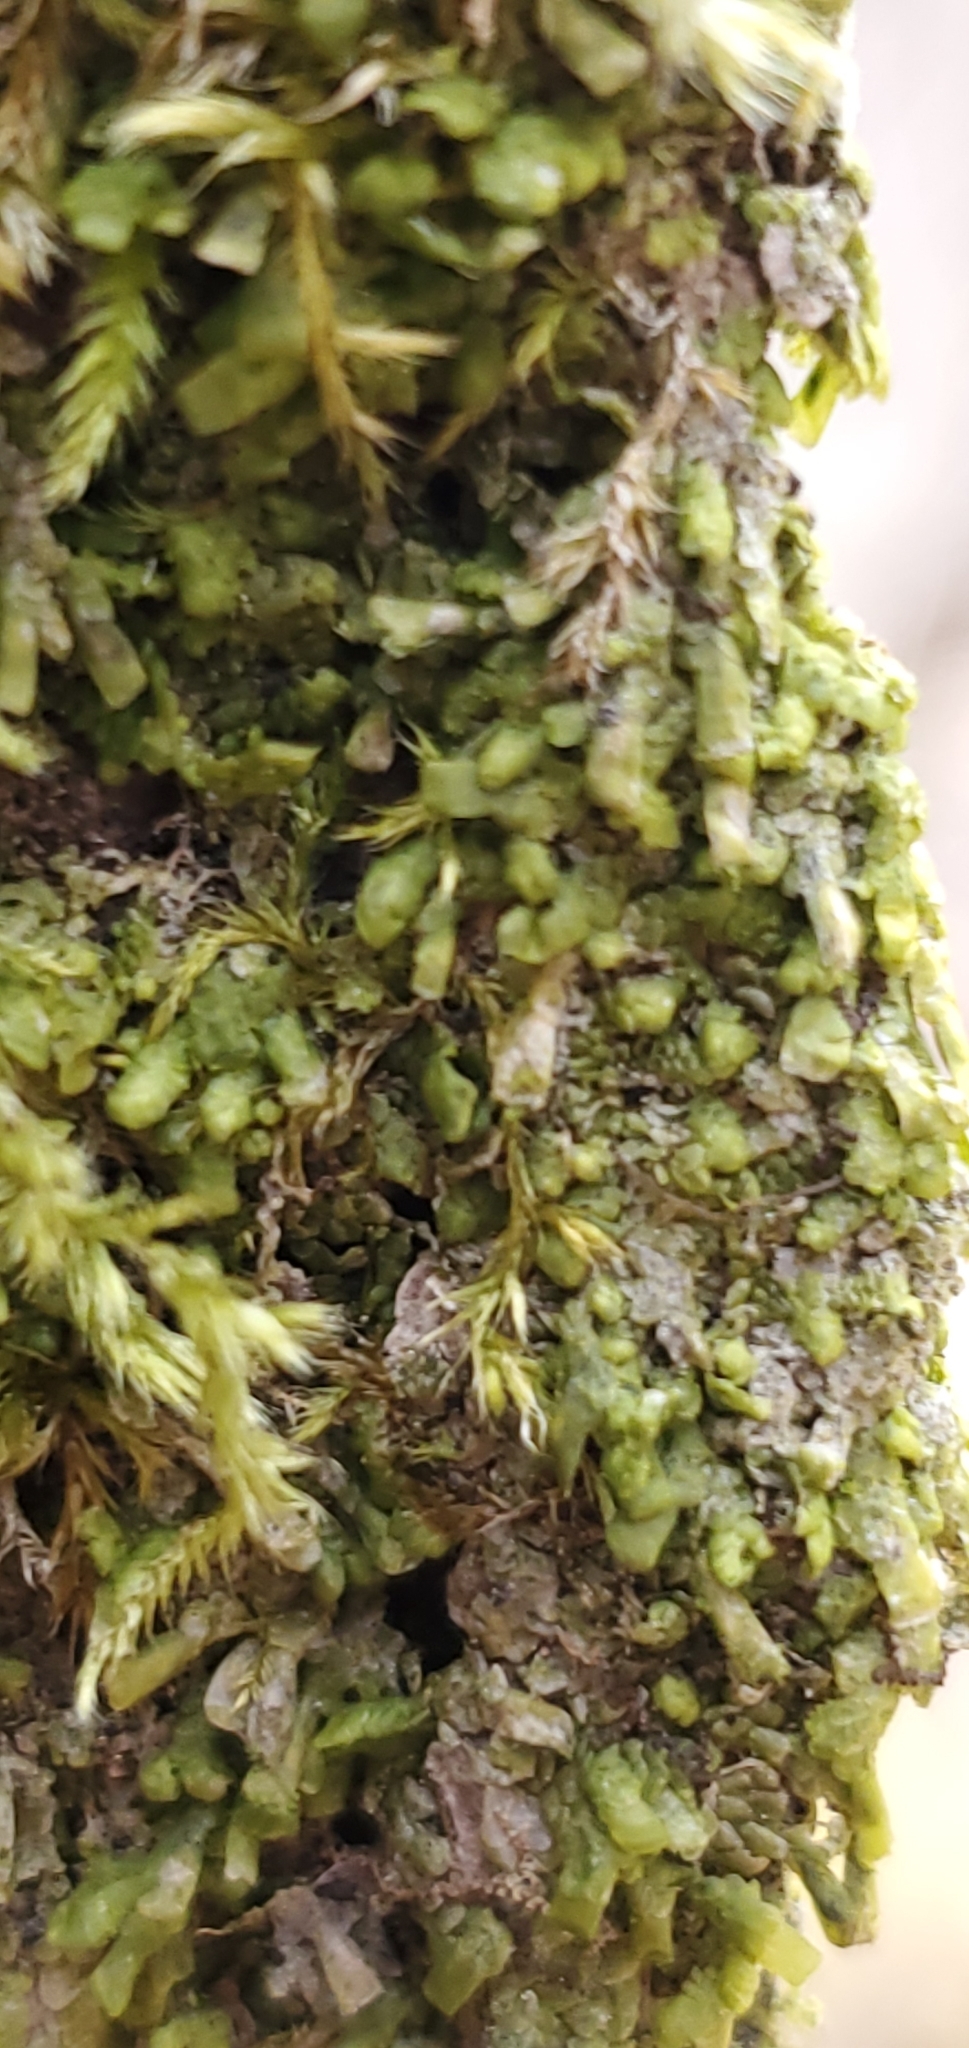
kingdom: Plantae
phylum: Marchantiophyta
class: Jungermanniopsida
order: Porellales
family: Radulaceae
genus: Radula
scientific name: Radula complanata
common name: Flat-leaved scalewort
